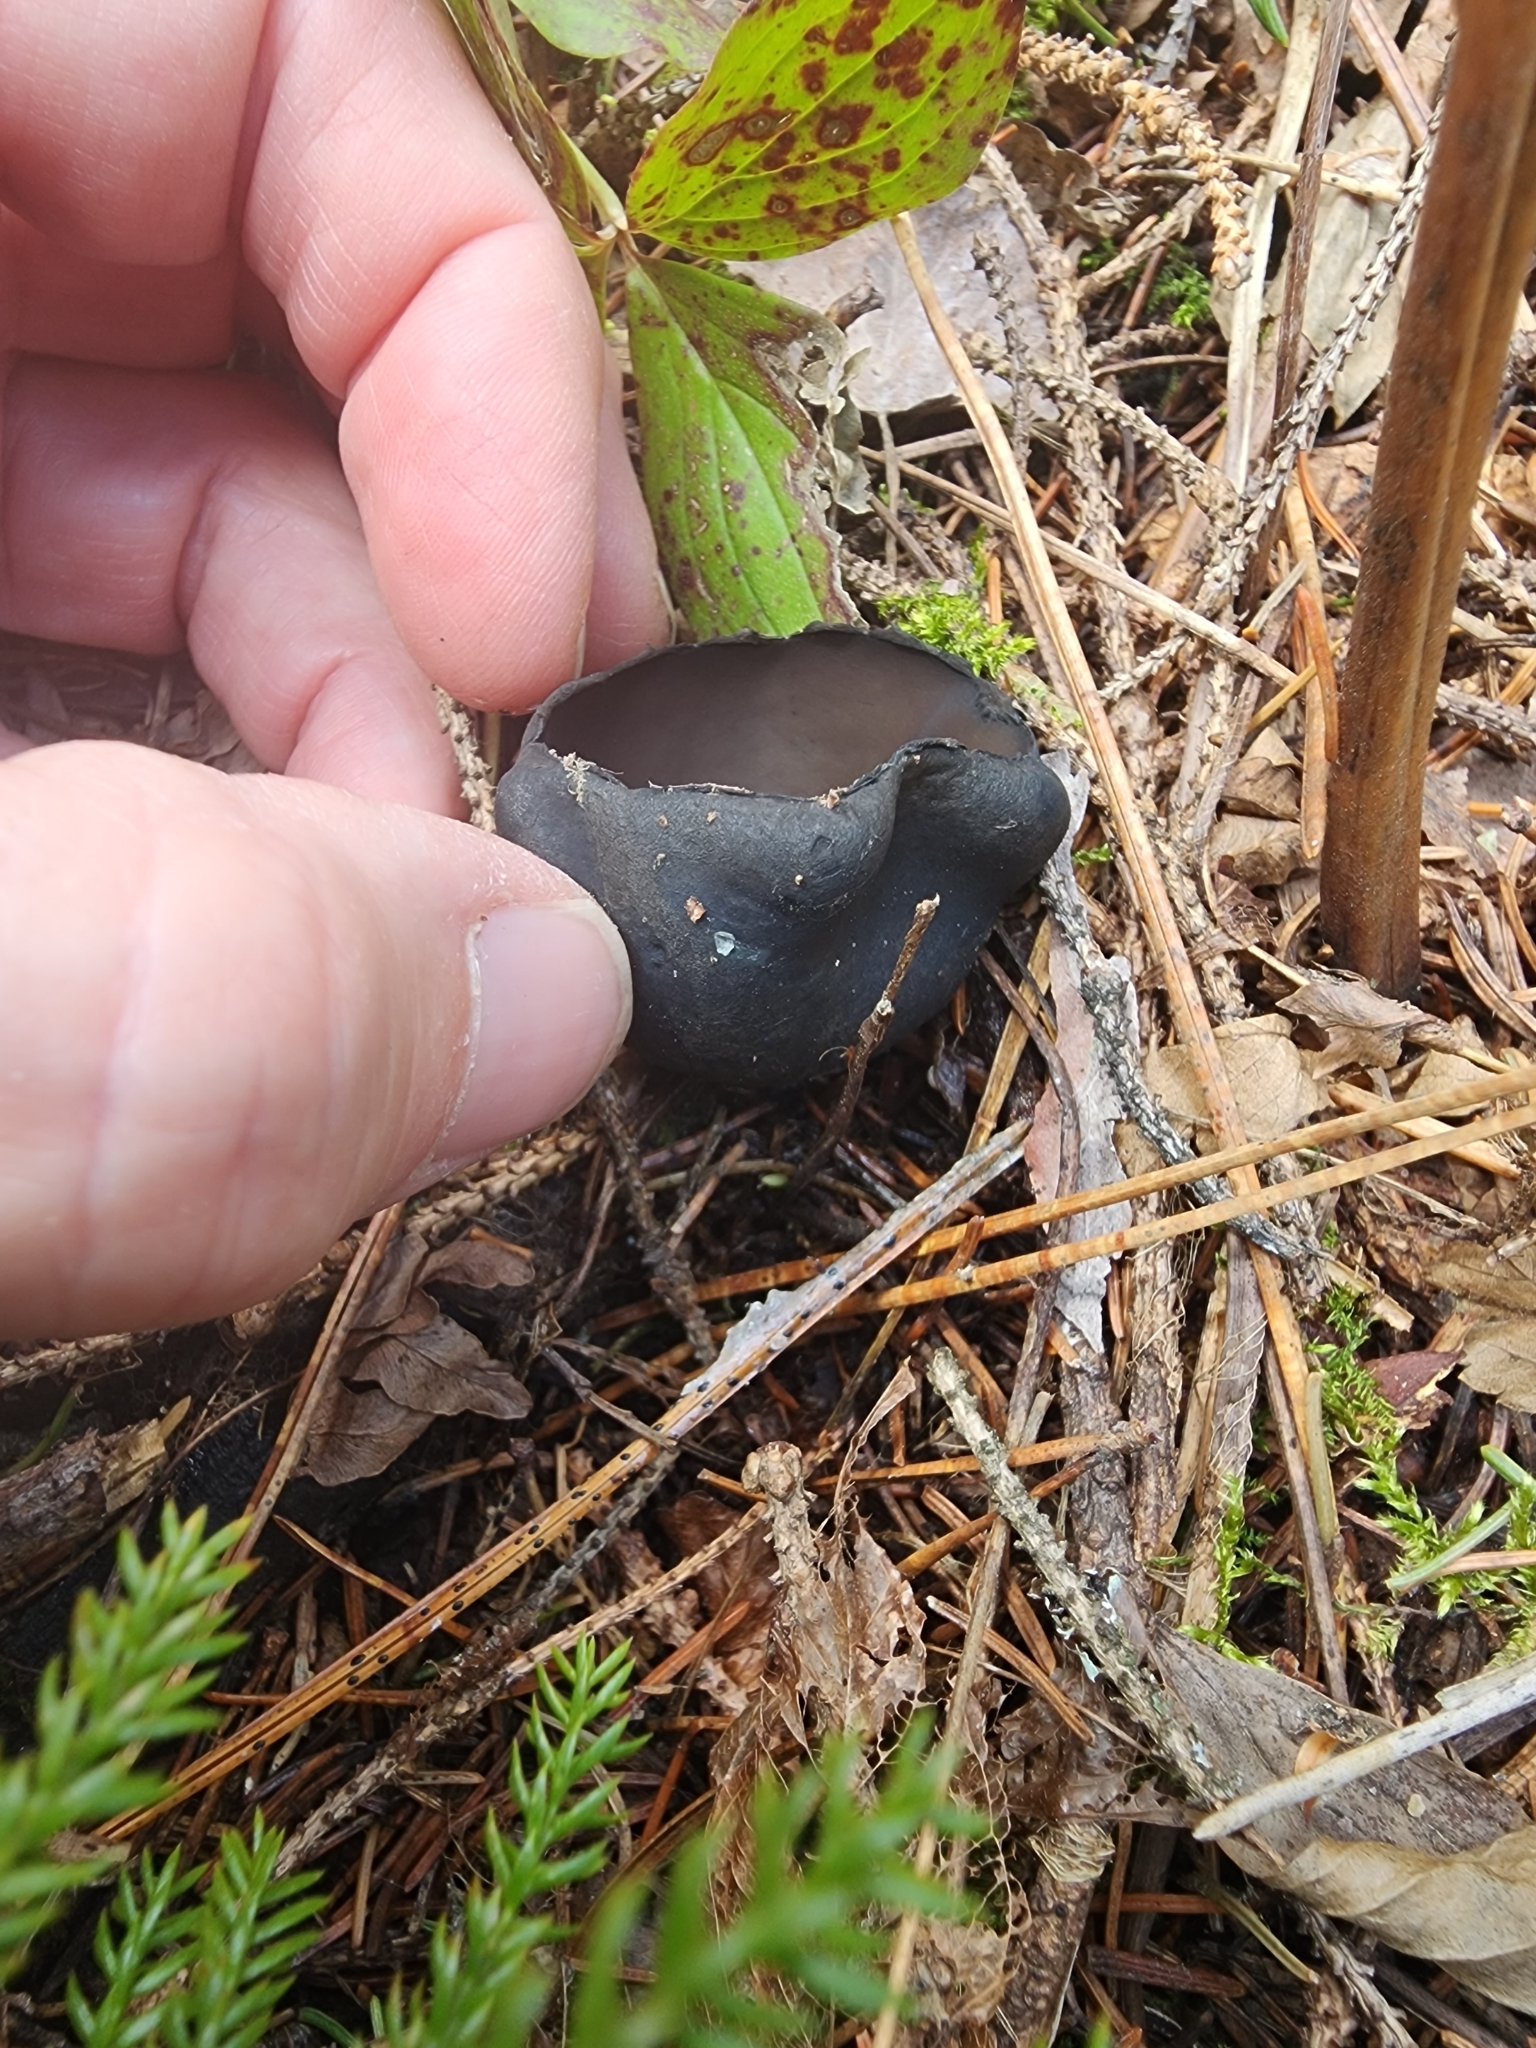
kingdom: Fungi
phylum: Ascomycota
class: Pezizomycetes
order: Pezizales
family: Sarcosomataceae
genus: Urnula
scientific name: Urnula craterium
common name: Devil's urn
